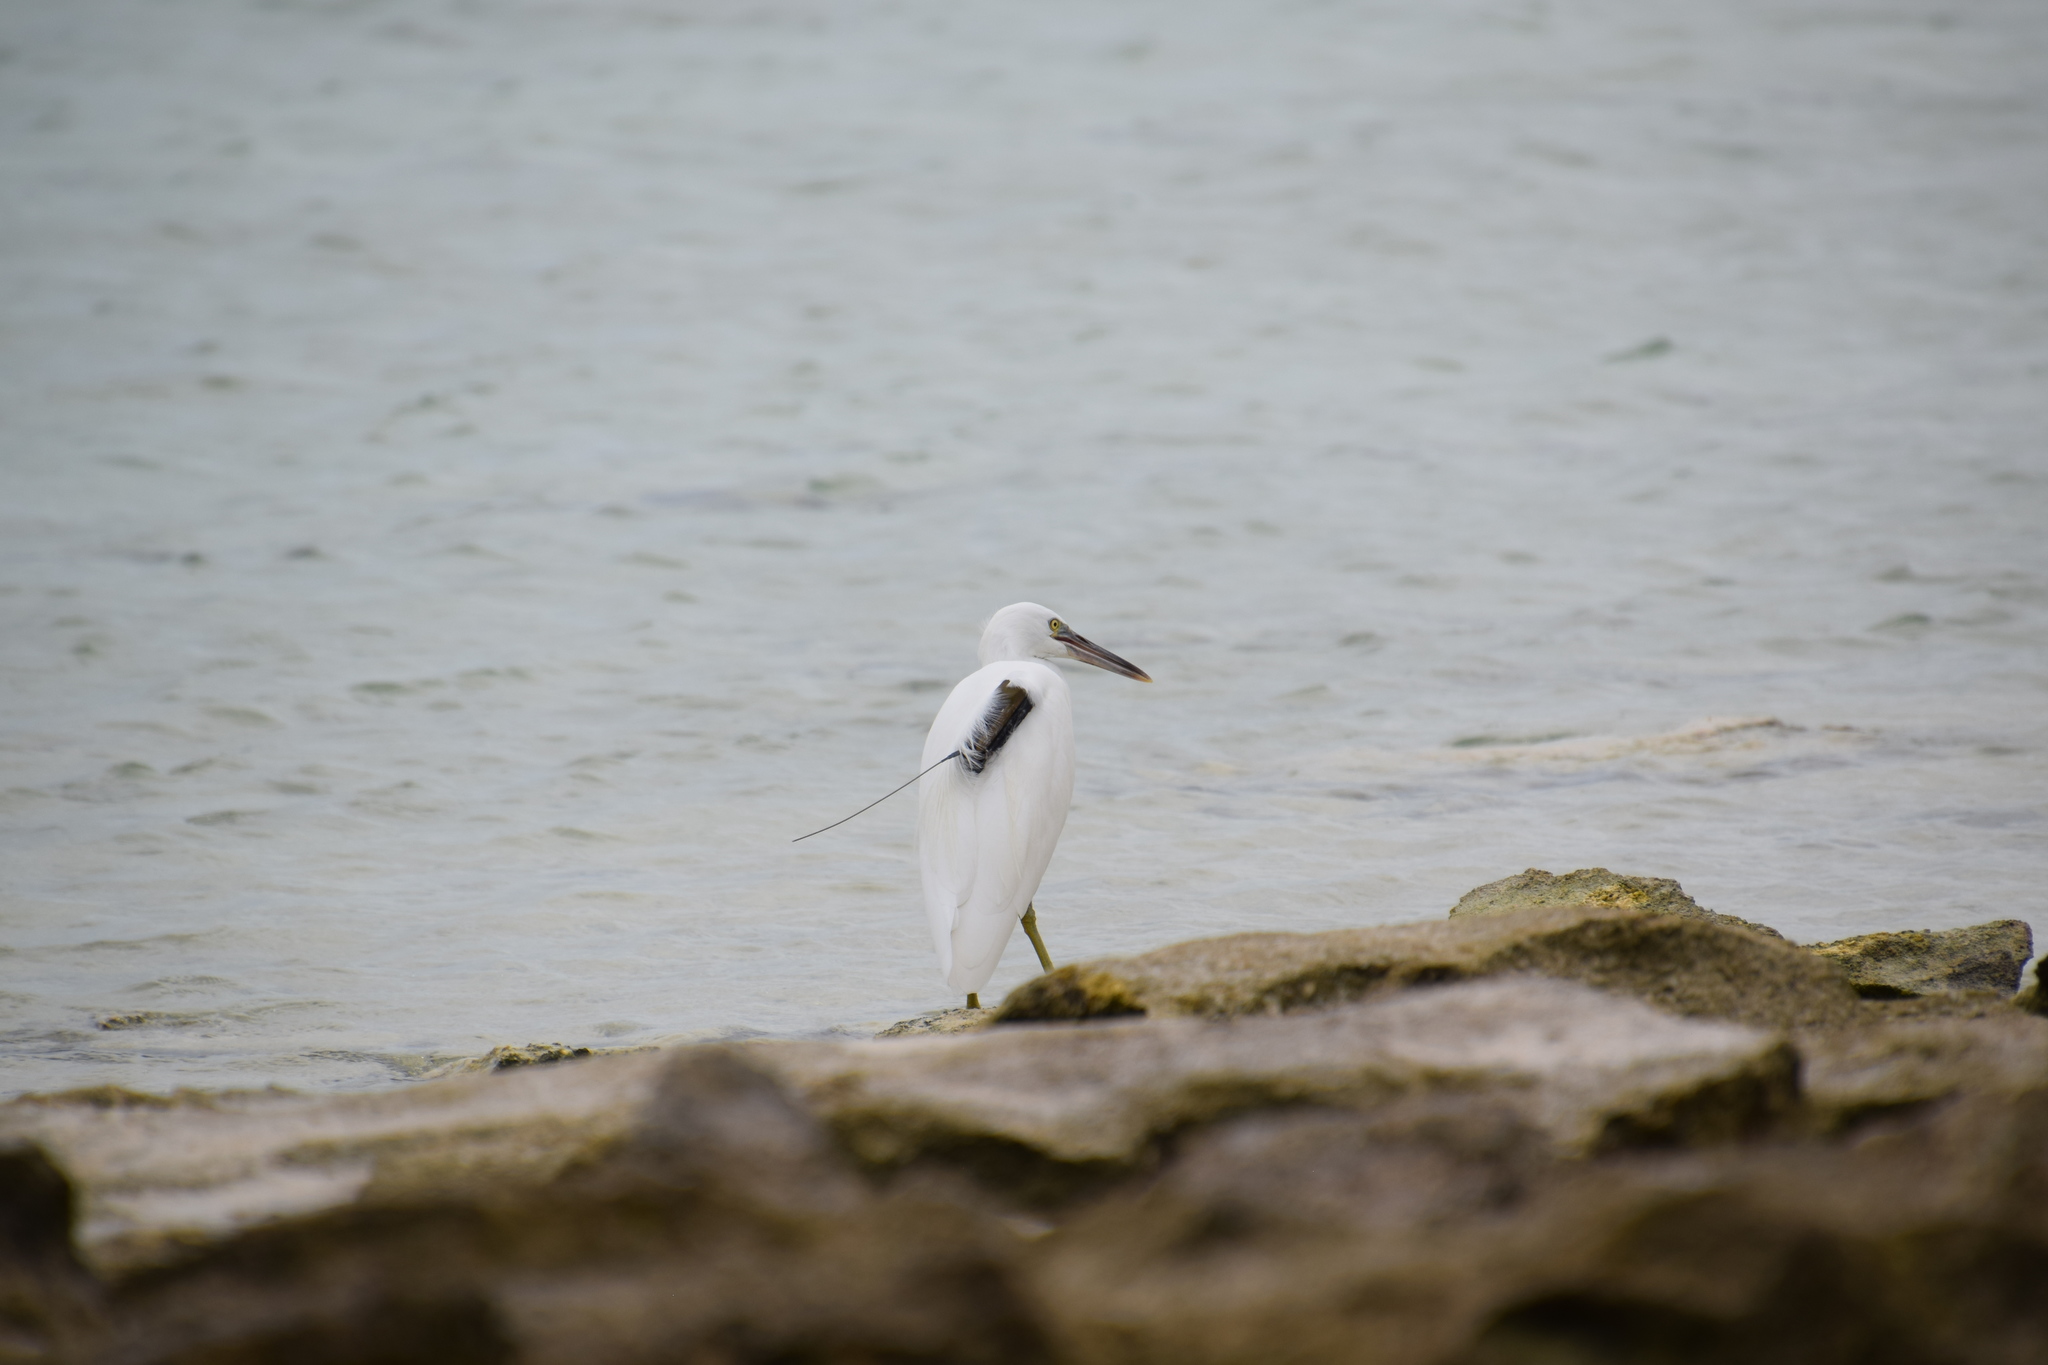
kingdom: Animalia
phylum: Chordata
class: Aves
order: Pelecaniformes
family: Ardeidae
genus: Egretta
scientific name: Egretta sacra
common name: Pacific reef heron
